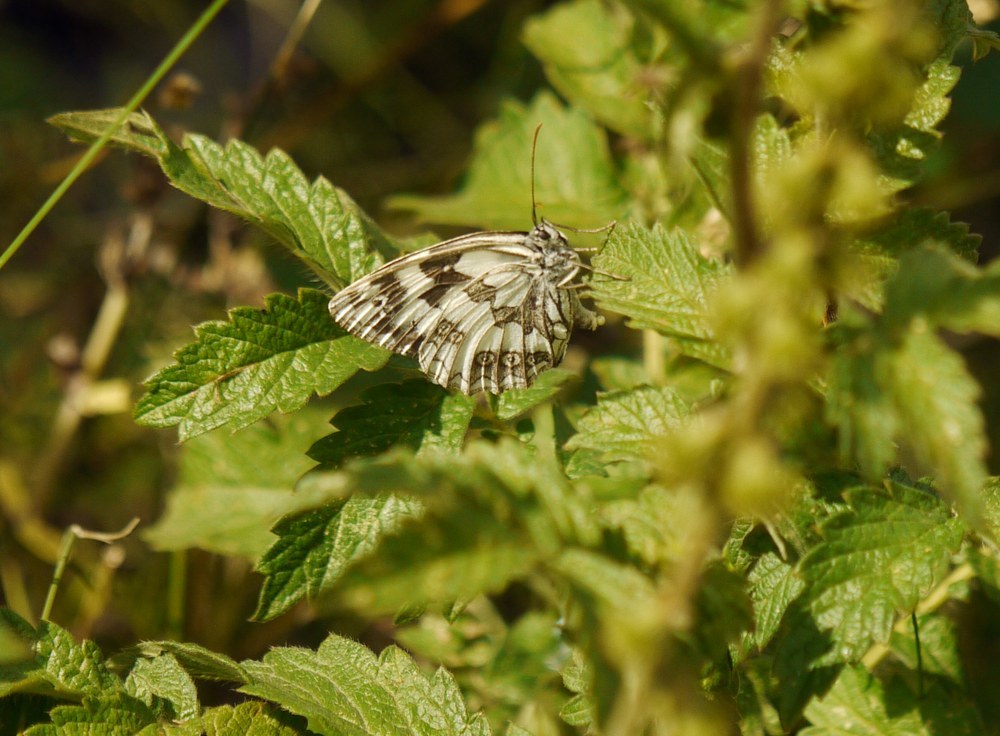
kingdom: Animalia
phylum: Arthropoda
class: Insecta
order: Lepidoptera
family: Nymphalidae
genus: Melanargia
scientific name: Melanargia galathea
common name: Marbled white
